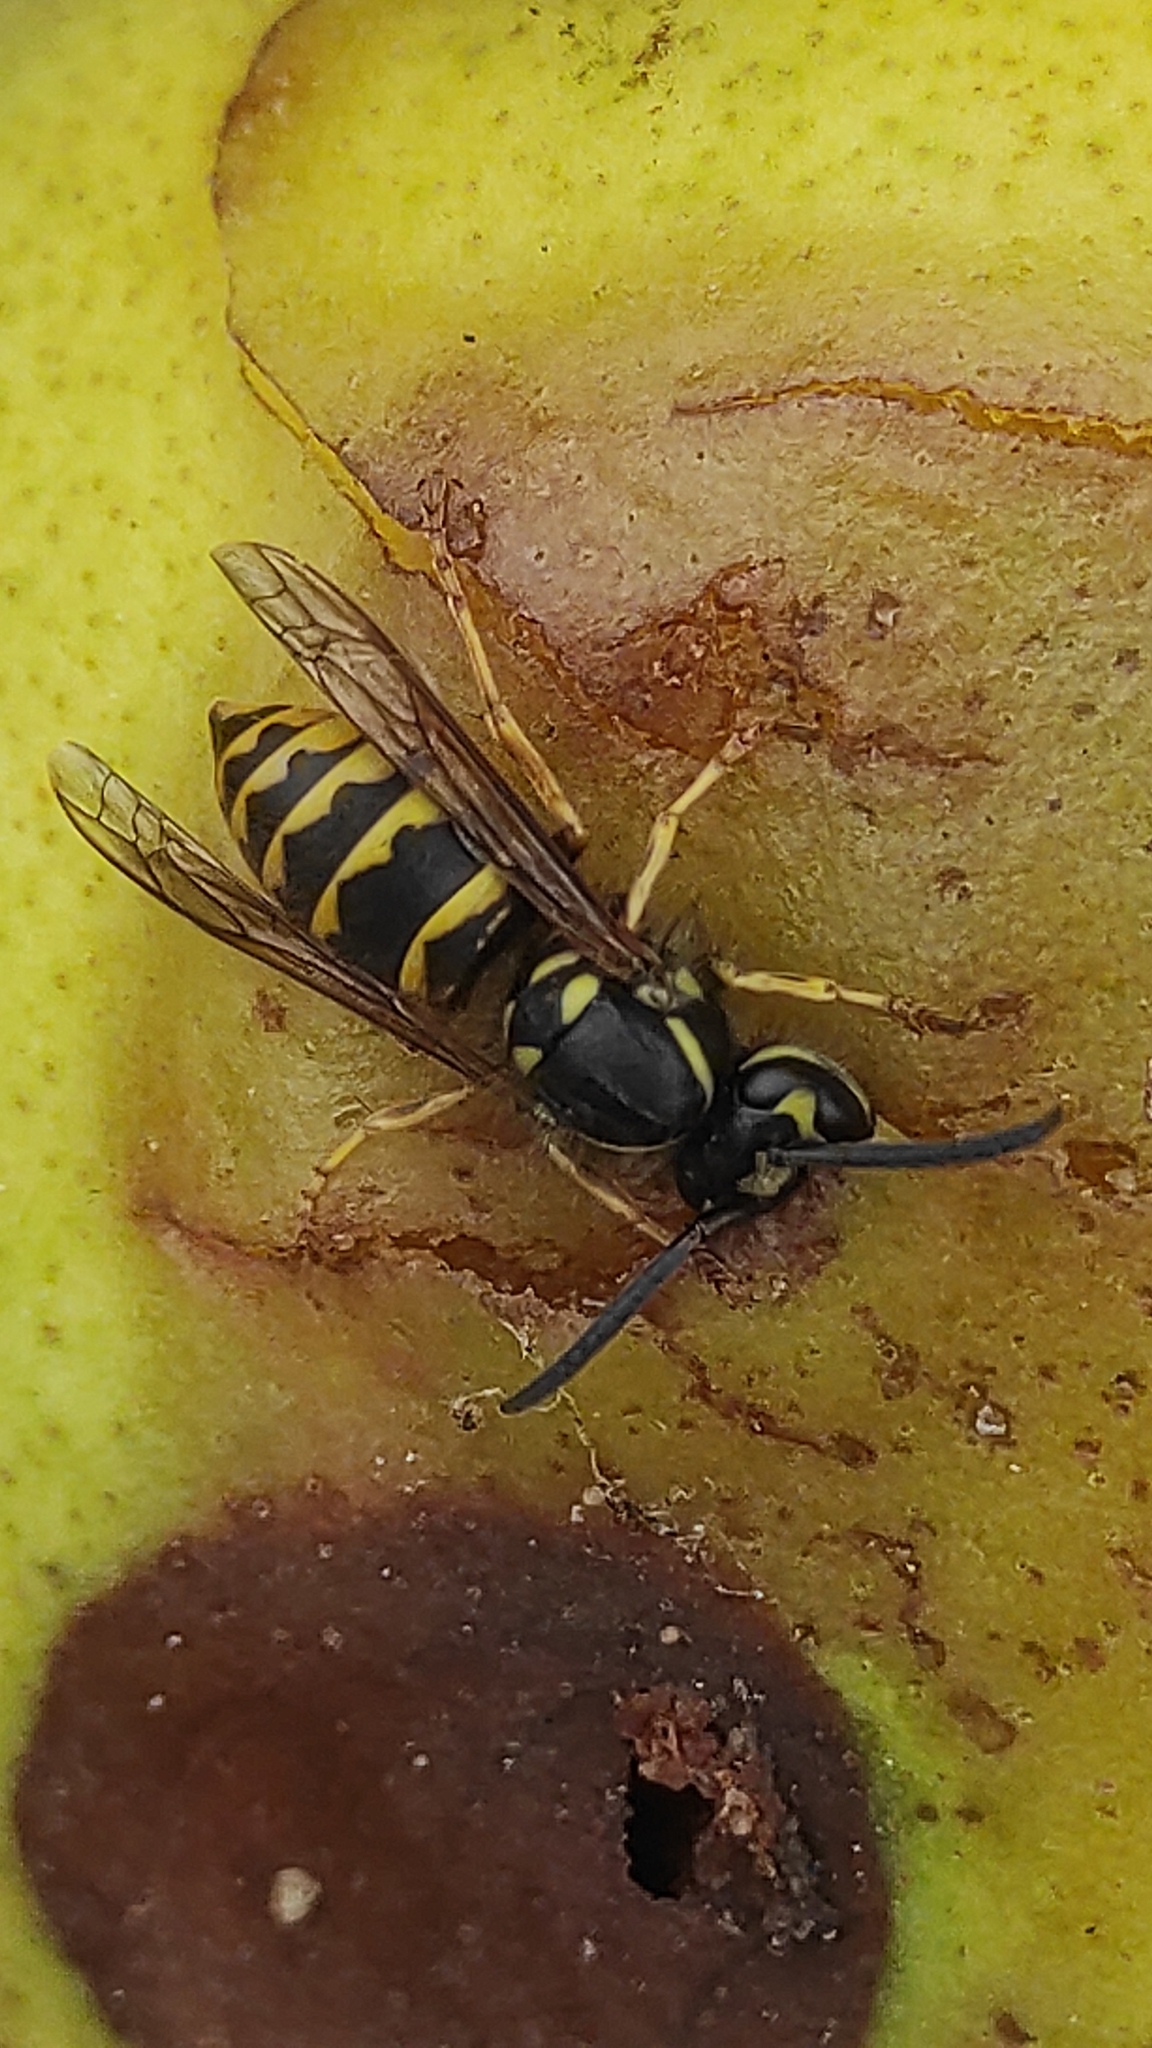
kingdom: Animalia
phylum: Arthropoda
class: Insecta
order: Hymenoptera
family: Vespidae
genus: Vespula
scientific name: Vespula vulgaris
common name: Common wasp
